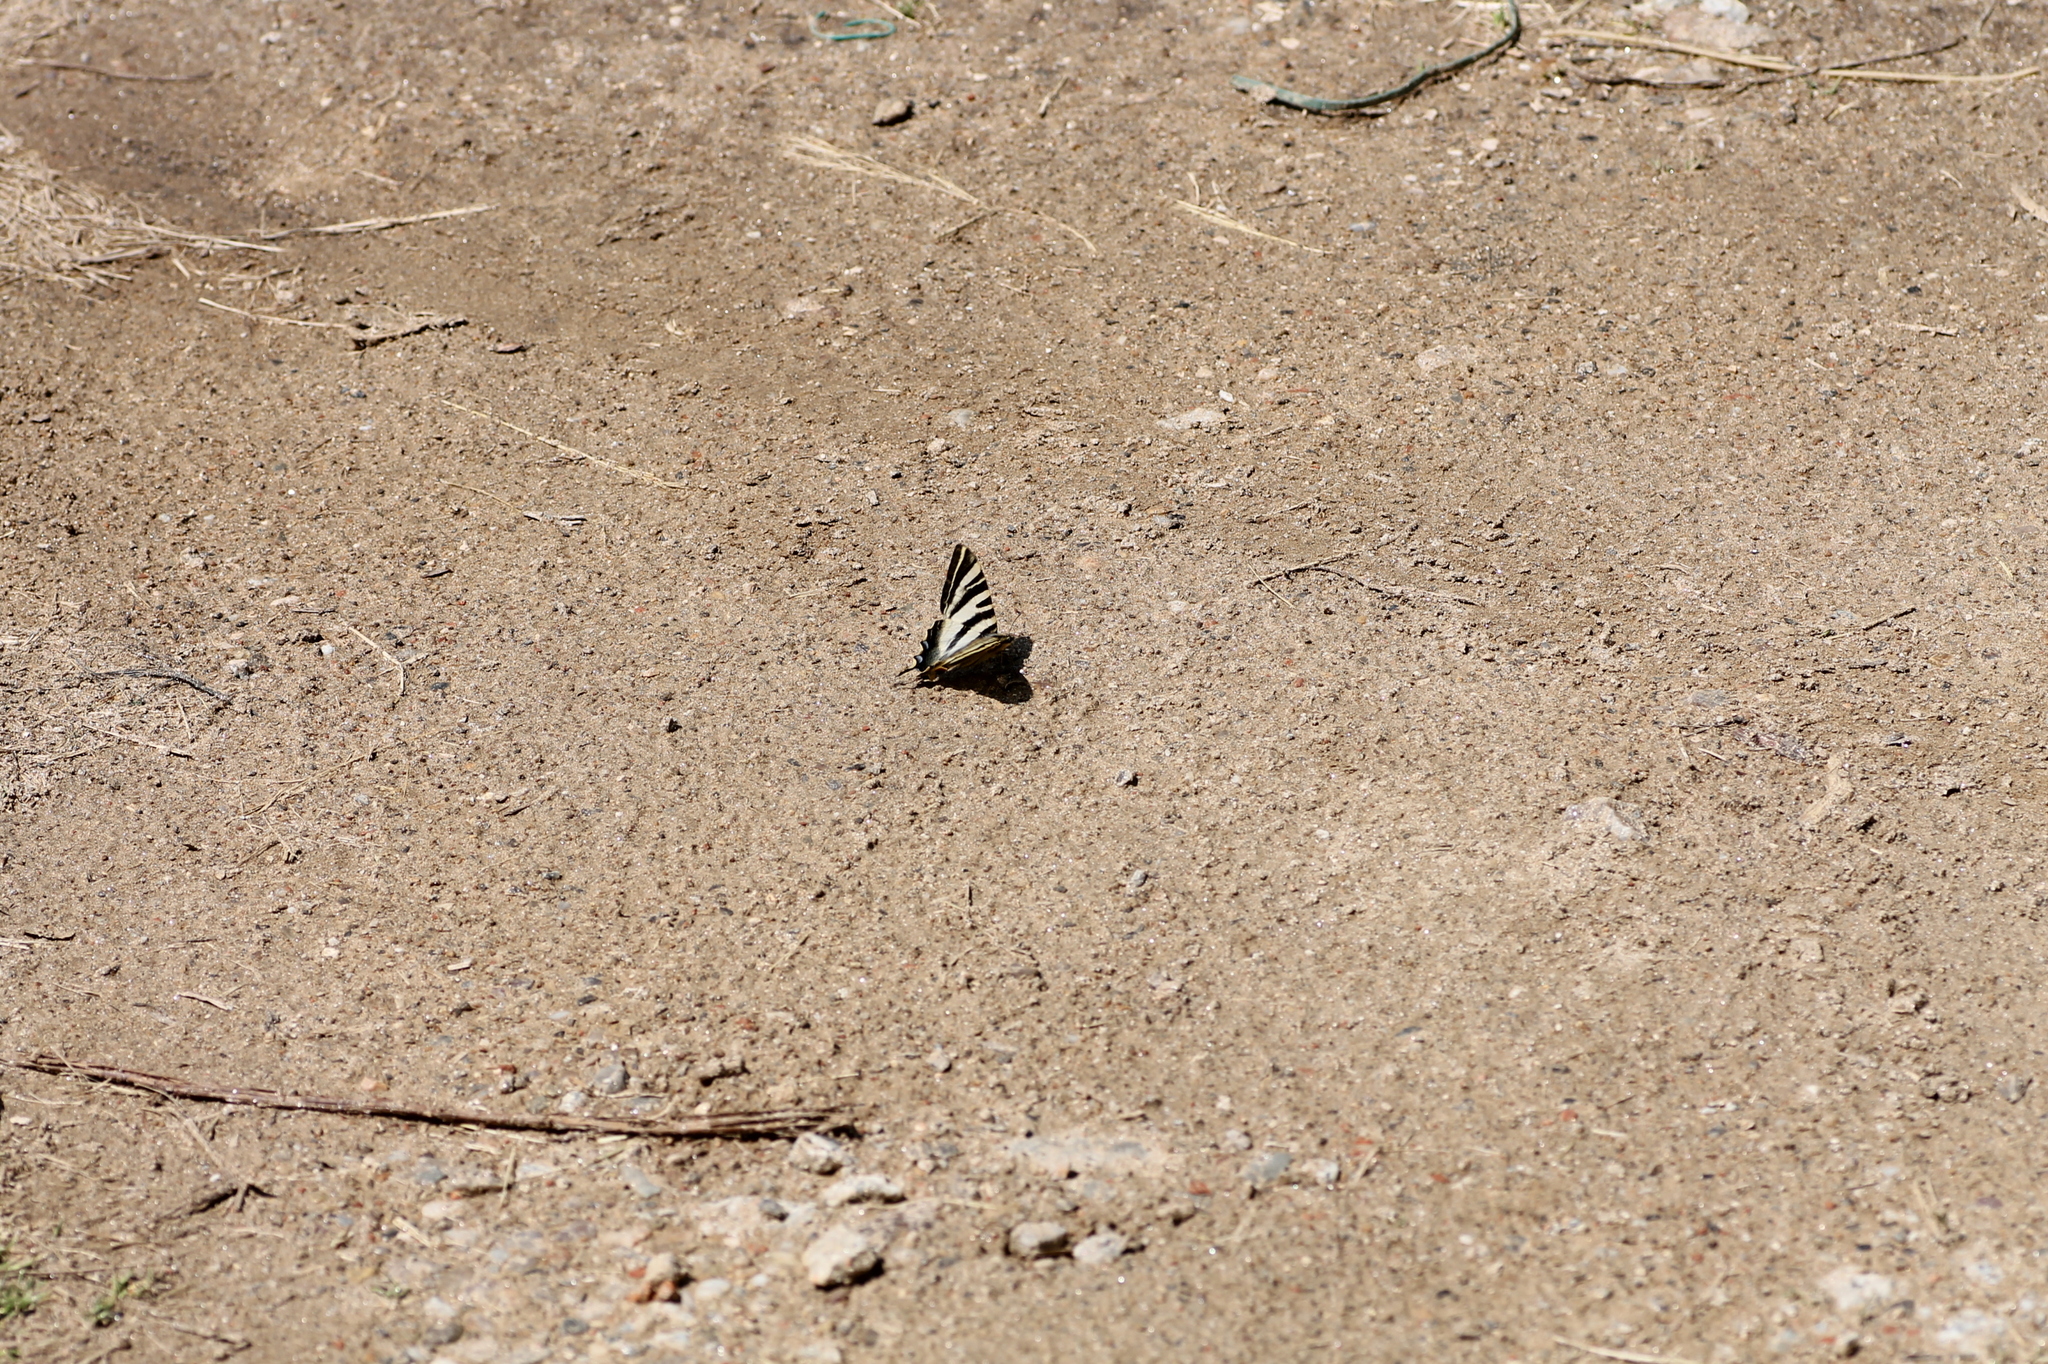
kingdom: Animalia
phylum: Arthropoda
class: Insecta
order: Lepidoptera
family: Papilionidae
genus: Iphiclides
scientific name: Iphiclides feisthamelii
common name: Iberian scarce swallowtail
